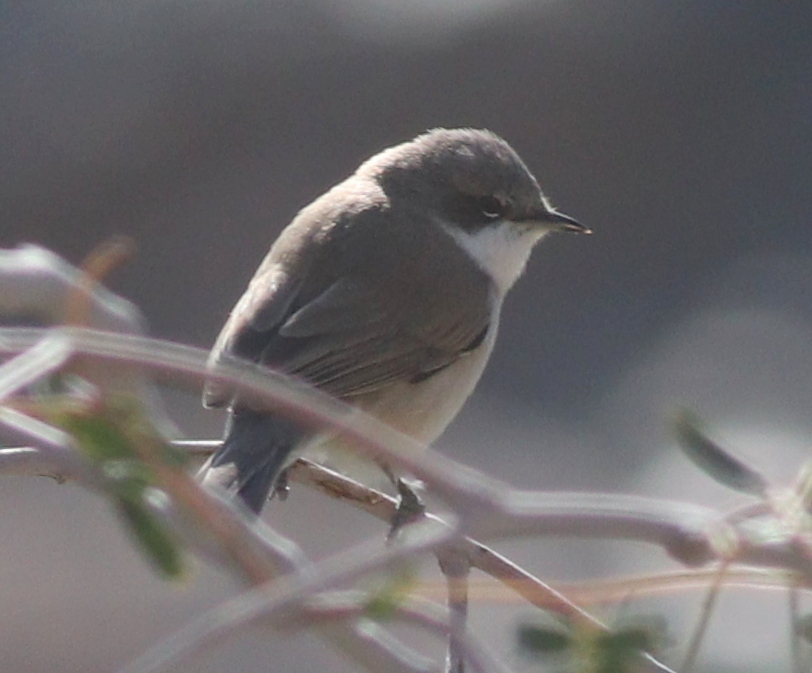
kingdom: Animalia
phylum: Chordata
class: Aves
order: Passeriformes
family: Sylviidae
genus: Sylvia
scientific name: Sylvia curruca
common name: Lesser whitethroat
